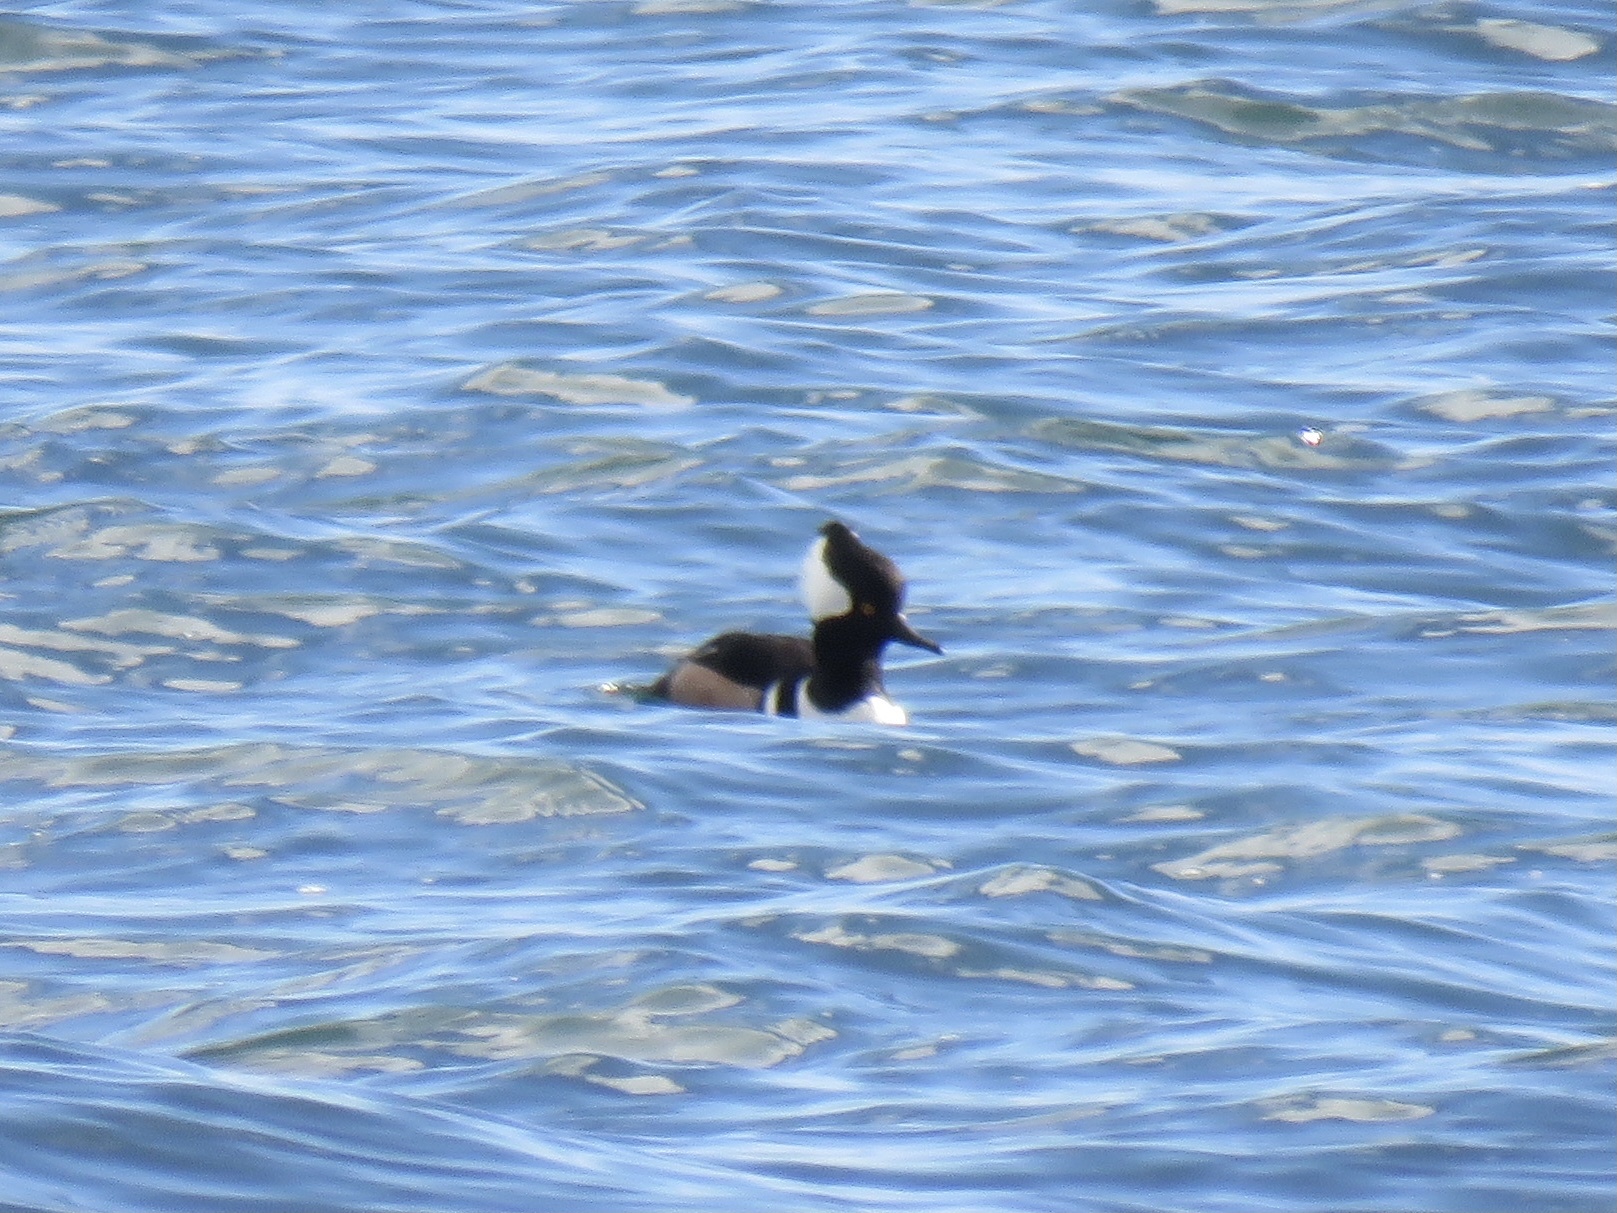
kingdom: Animalia
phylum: Chordata
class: Aves
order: Anseriformes
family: Anatidae
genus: Lophodytes
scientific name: Lophodytes cucullatus
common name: Hooded merganser
